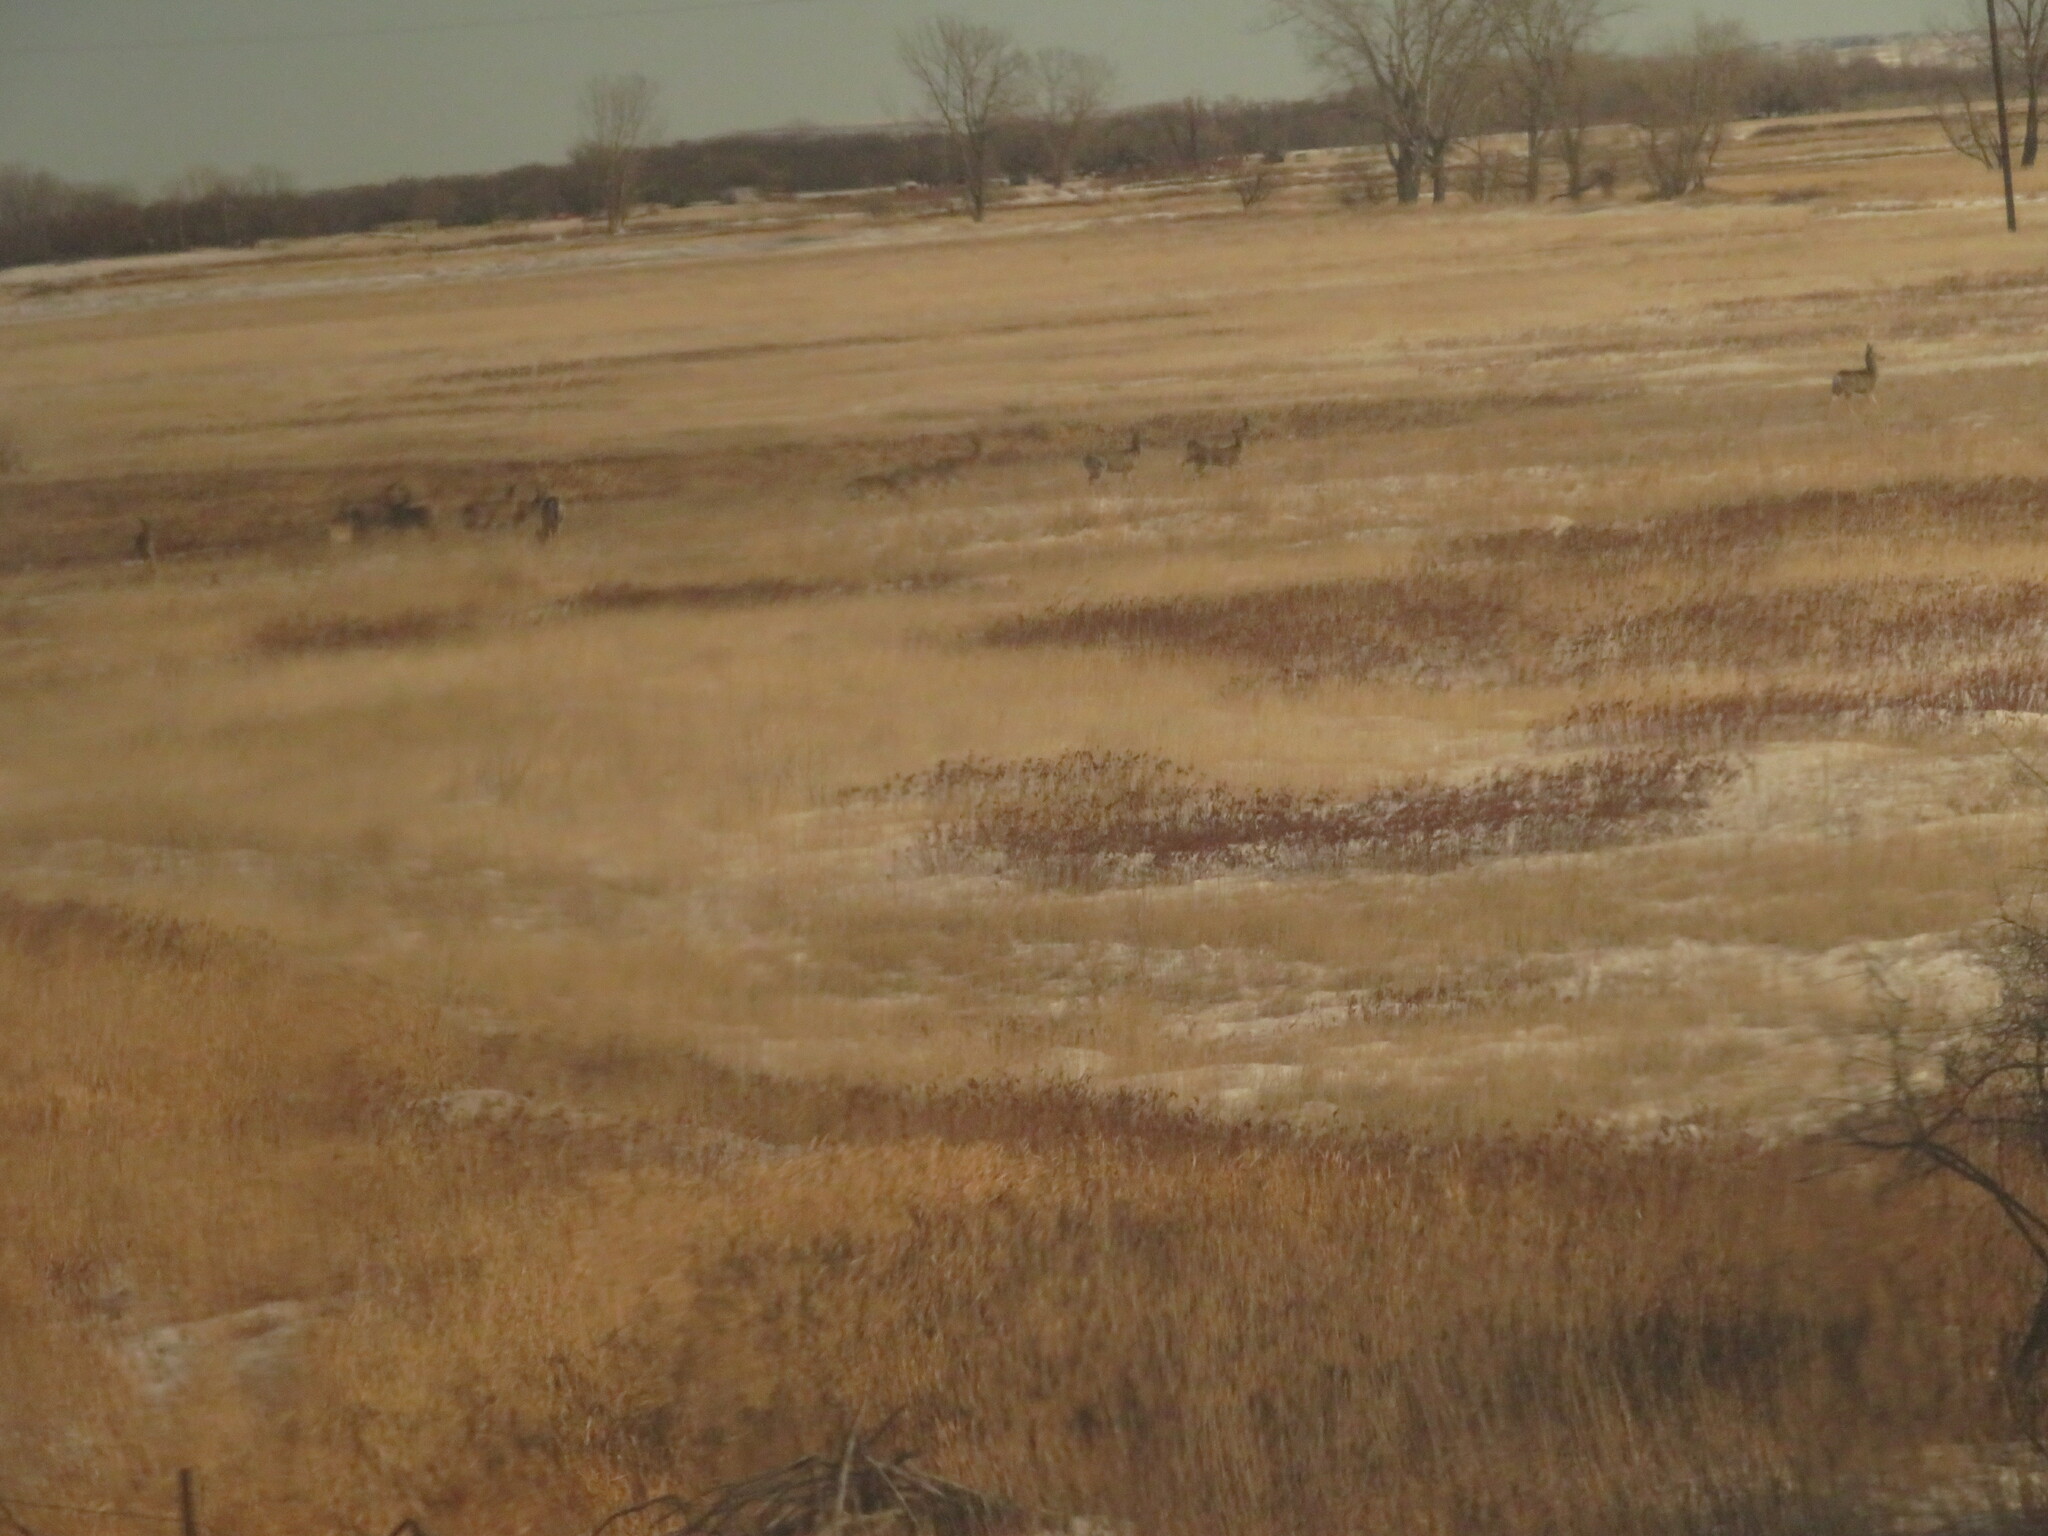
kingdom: Animalia
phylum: Chordata
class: Mammalia
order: Artiodactyla
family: Cervidae
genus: Odocoileus
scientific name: Odocoileus virginianus
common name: White-tailed deer
